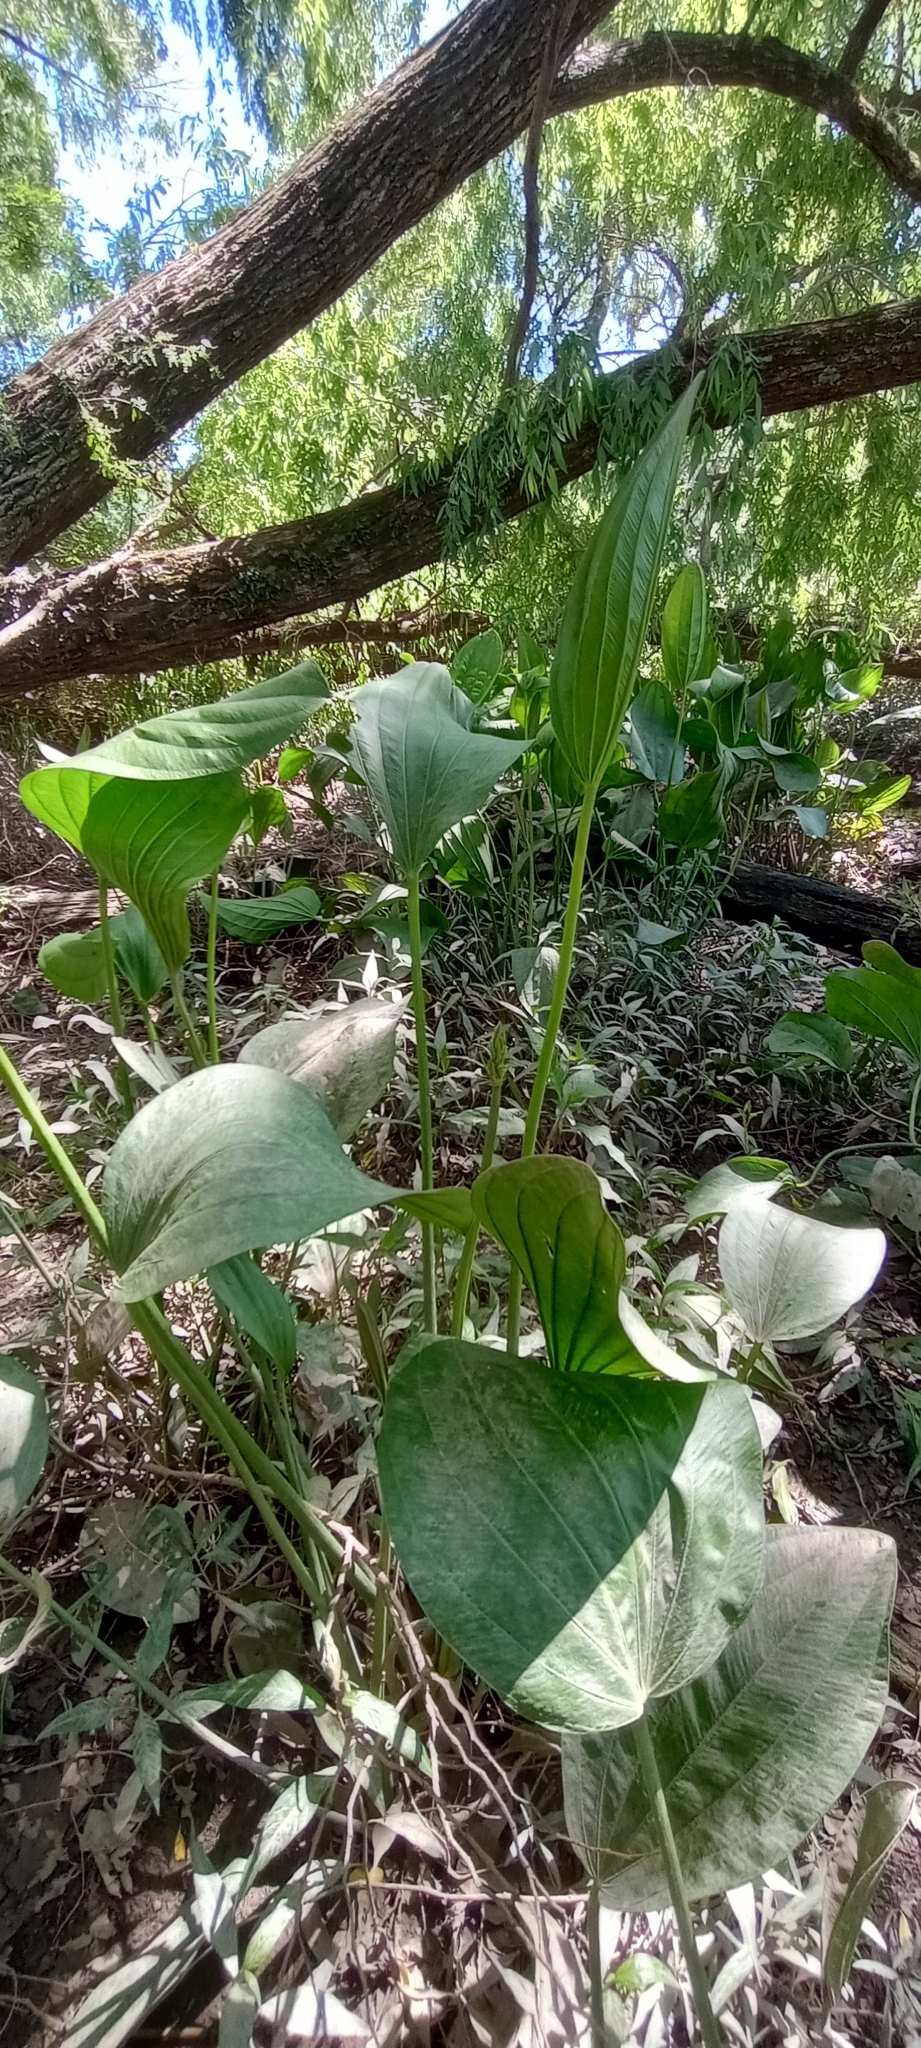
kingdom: Plantae
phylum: Tracheophyta
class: Liliopsida
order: Alismatales
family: Alismataceae
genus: Aquarius
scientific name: Aquarius grandiflorus
